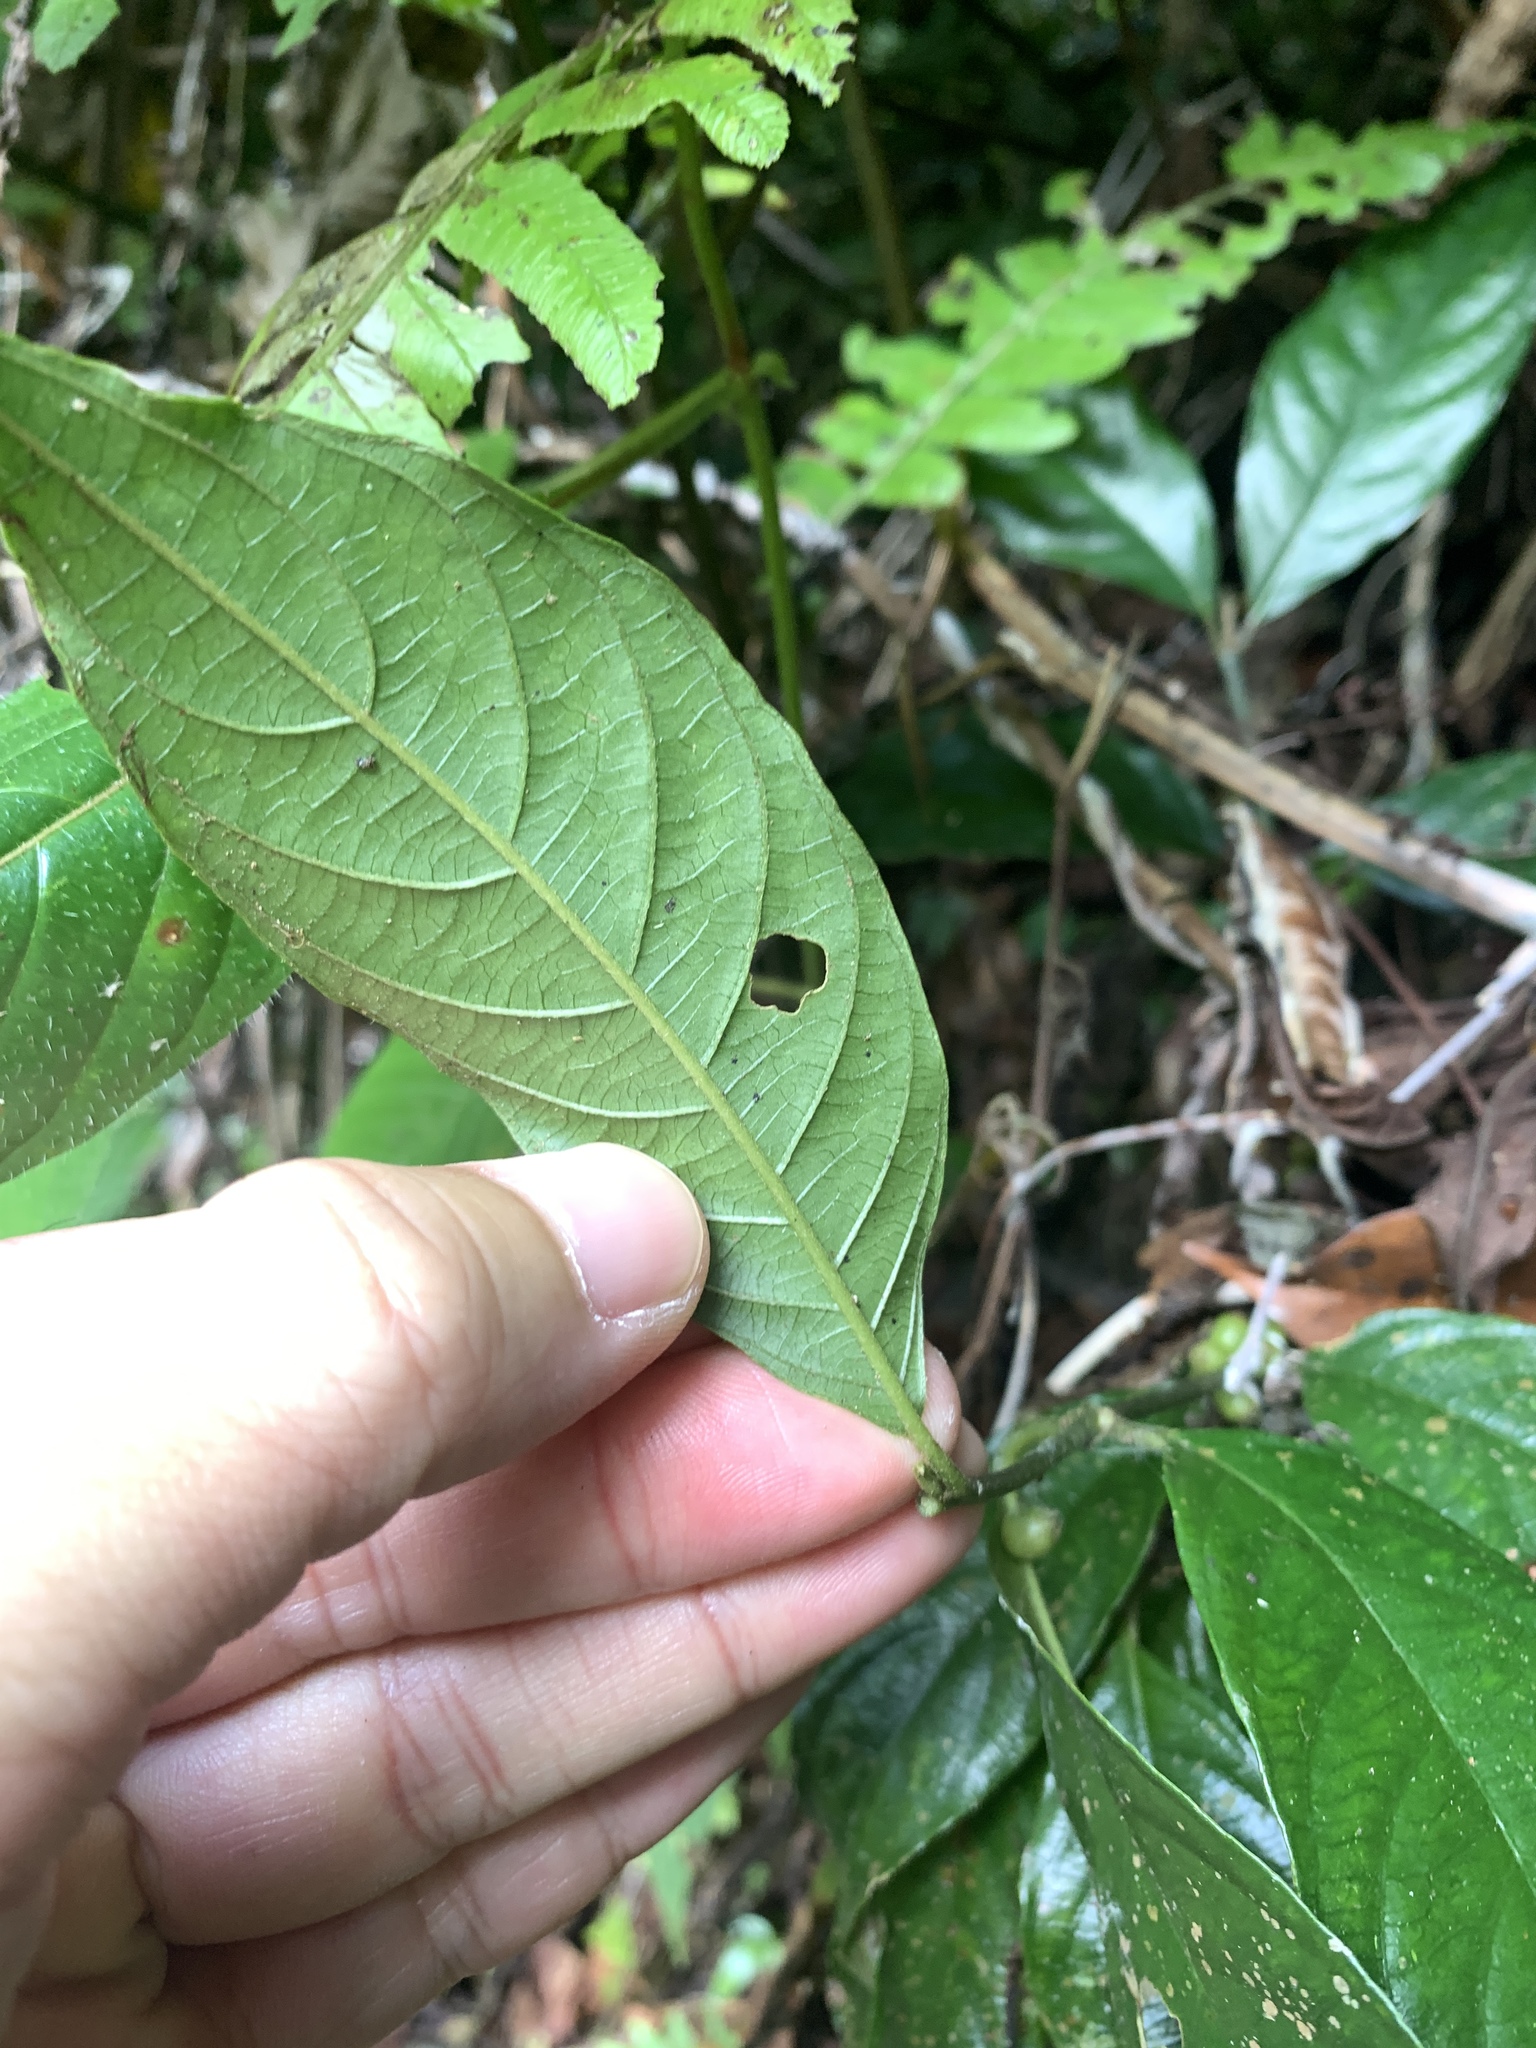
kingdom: Plantae
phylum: Tracheophyta
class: Magnoliopsida
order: Gentianales
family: Rubiaceae
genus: Lasianthus
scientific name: Lasianthus fordii
